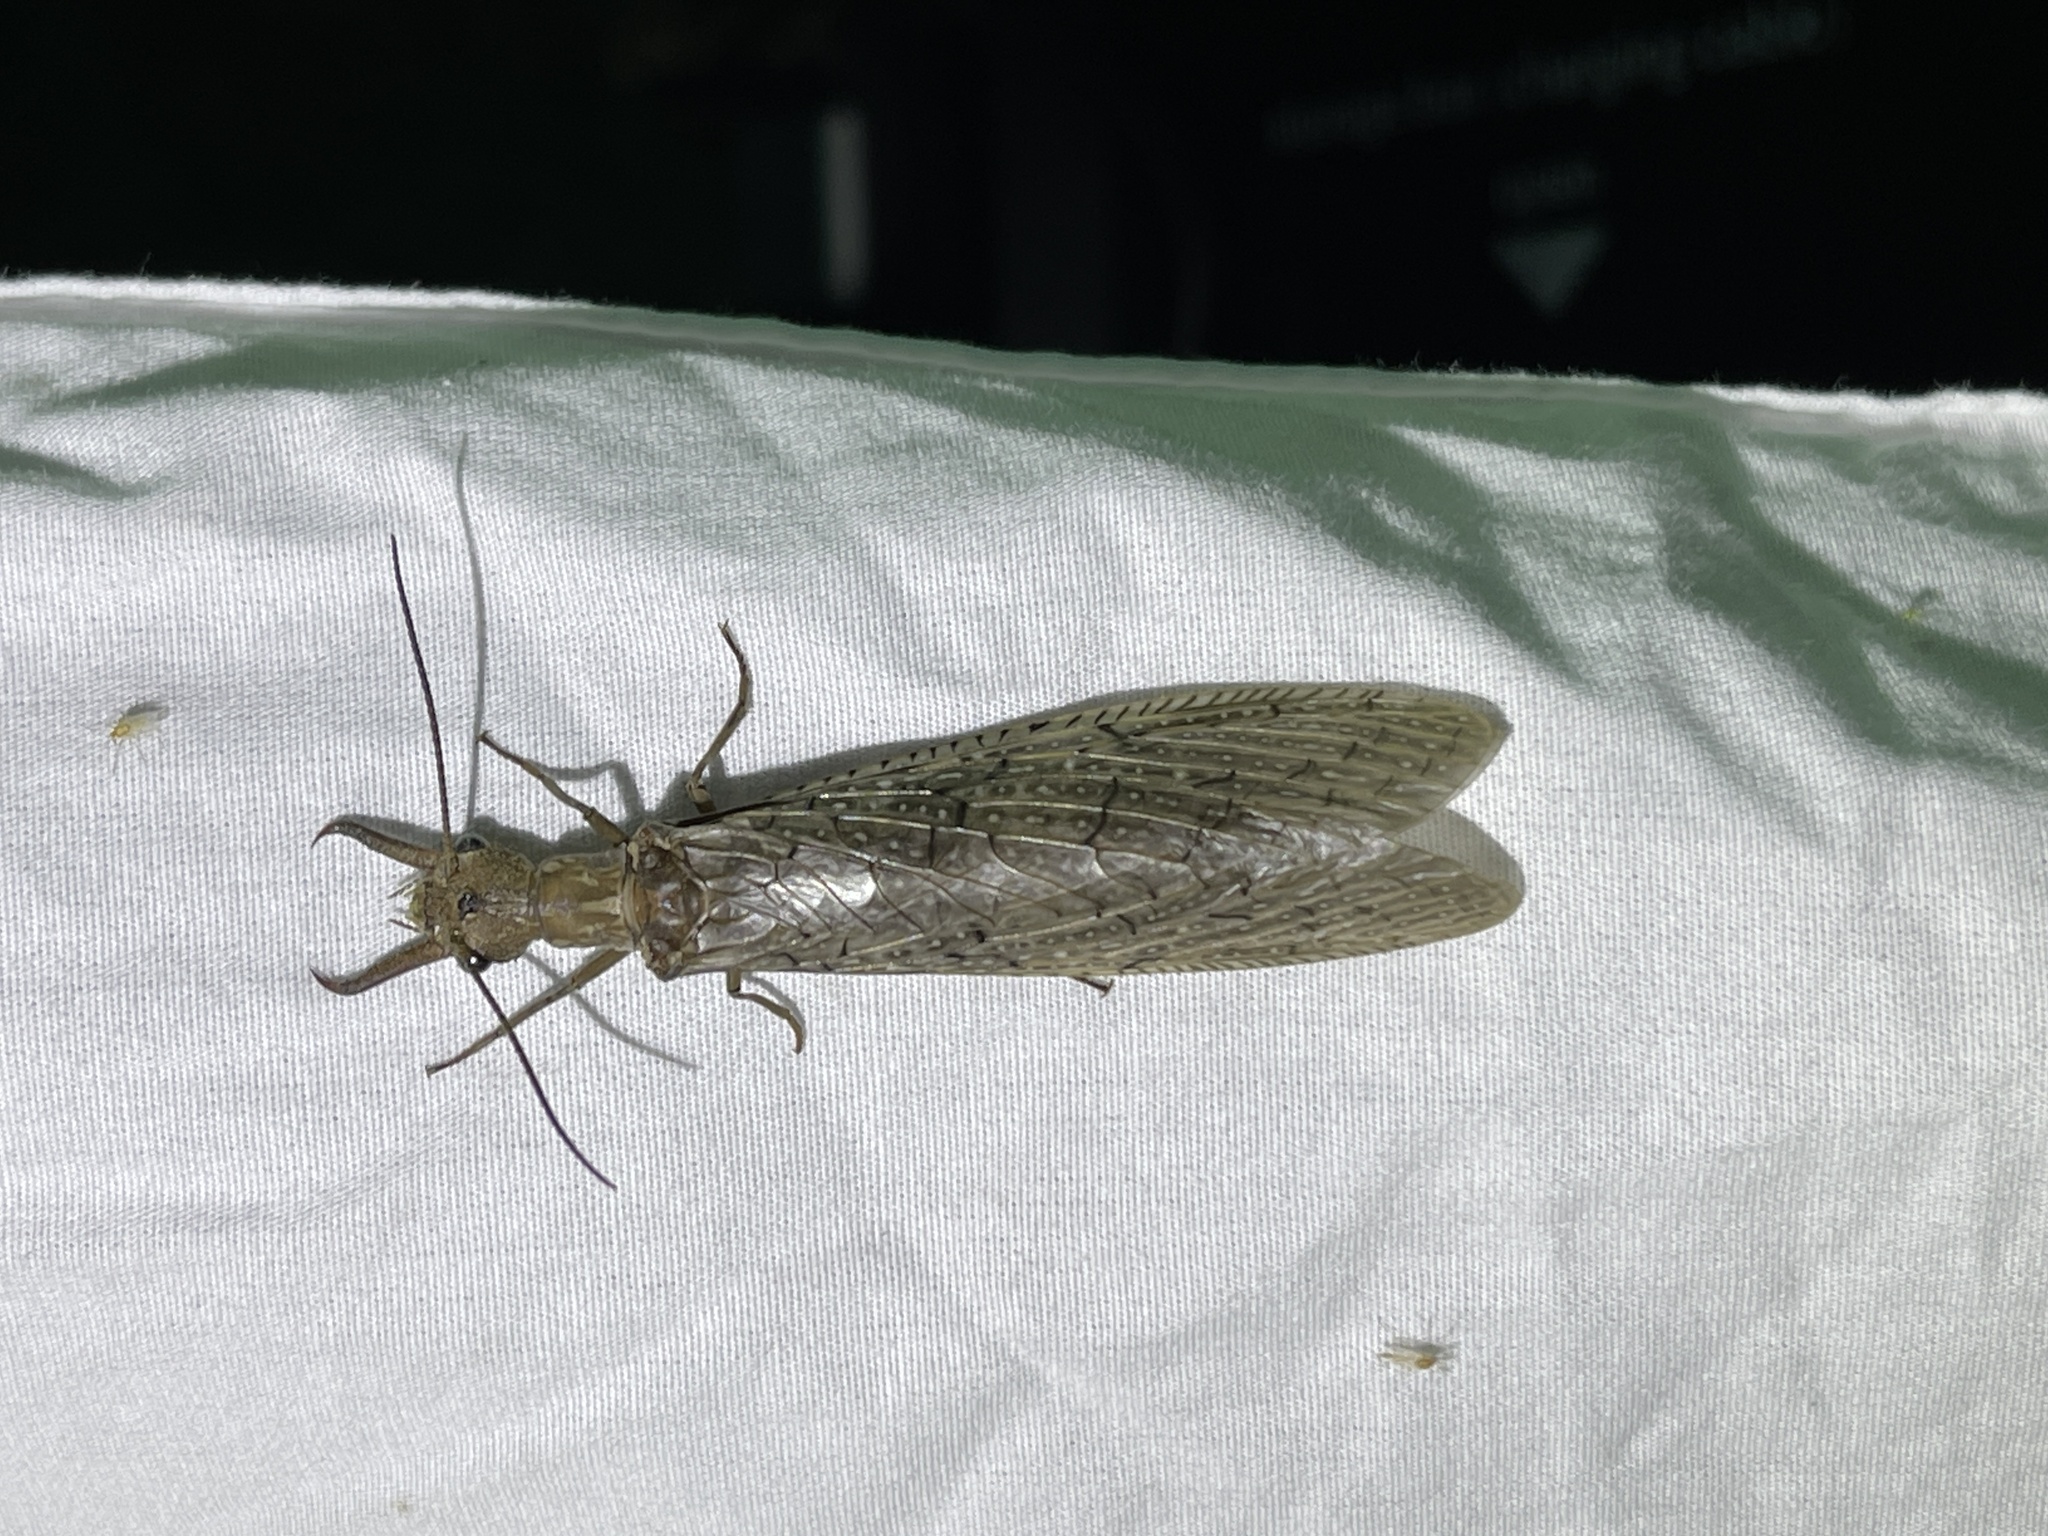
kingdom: Animalia
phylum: Arthropoda
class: Insecta
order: Megaloptera
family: Corydalidae
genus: Corydalus
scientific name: Corydalus texanus
